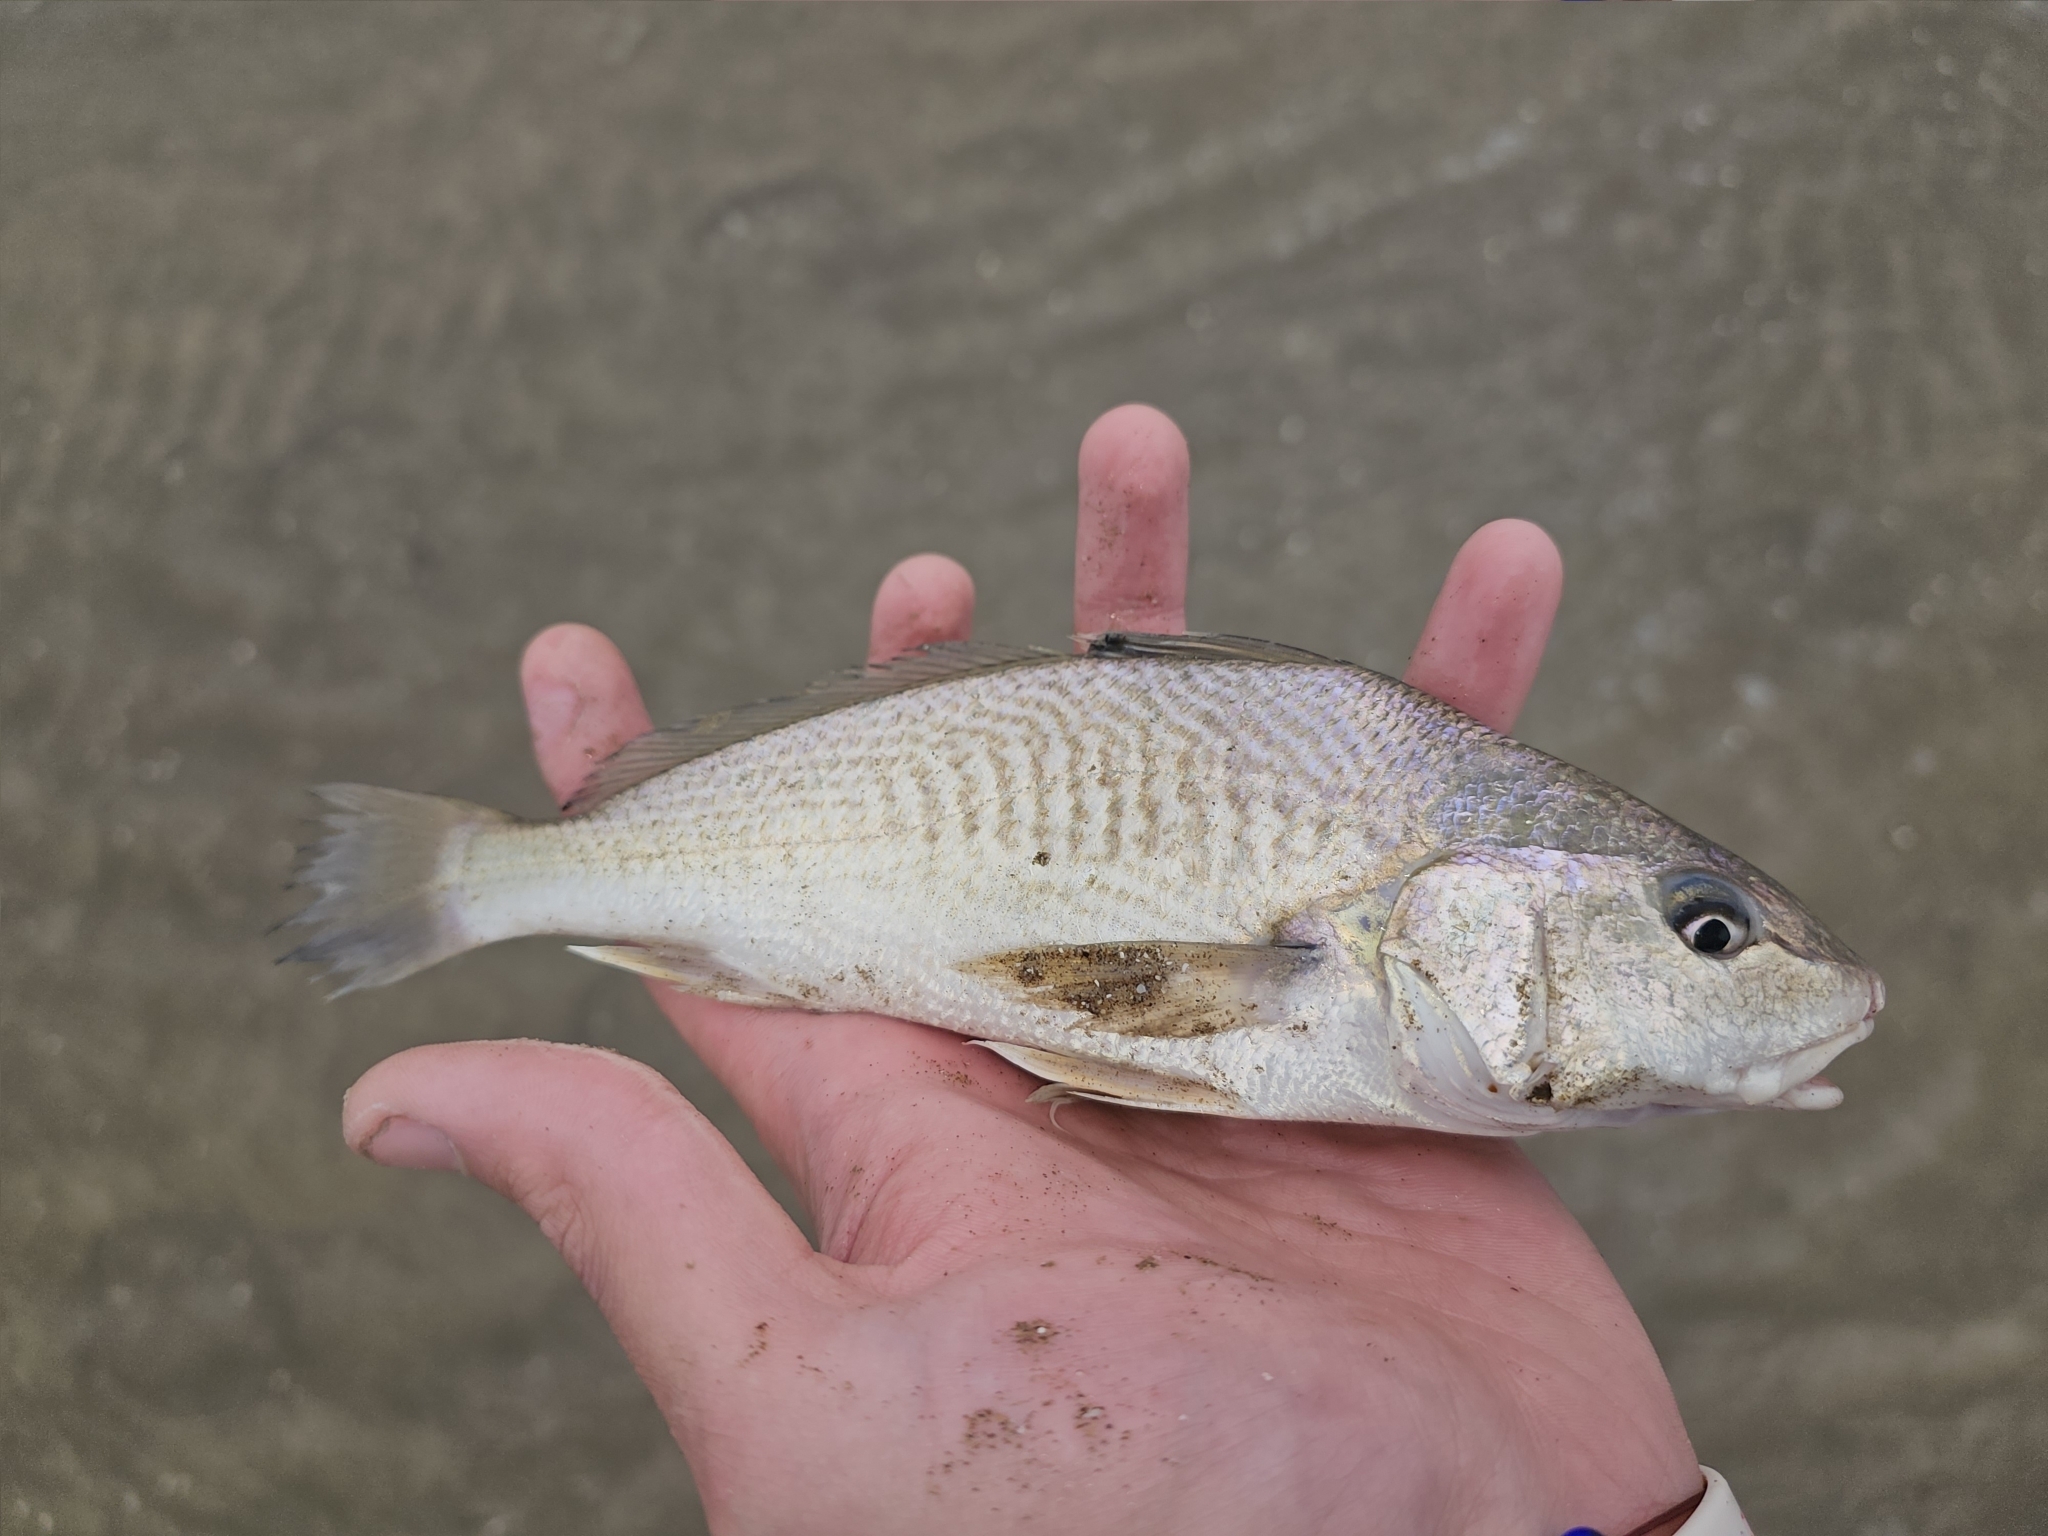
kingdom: Animalia
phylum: Chordata
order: Perciformes
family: Sciaenidae
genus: Micropogonias
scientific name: Micropogonias furnieri
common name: Whitemouth croaker
